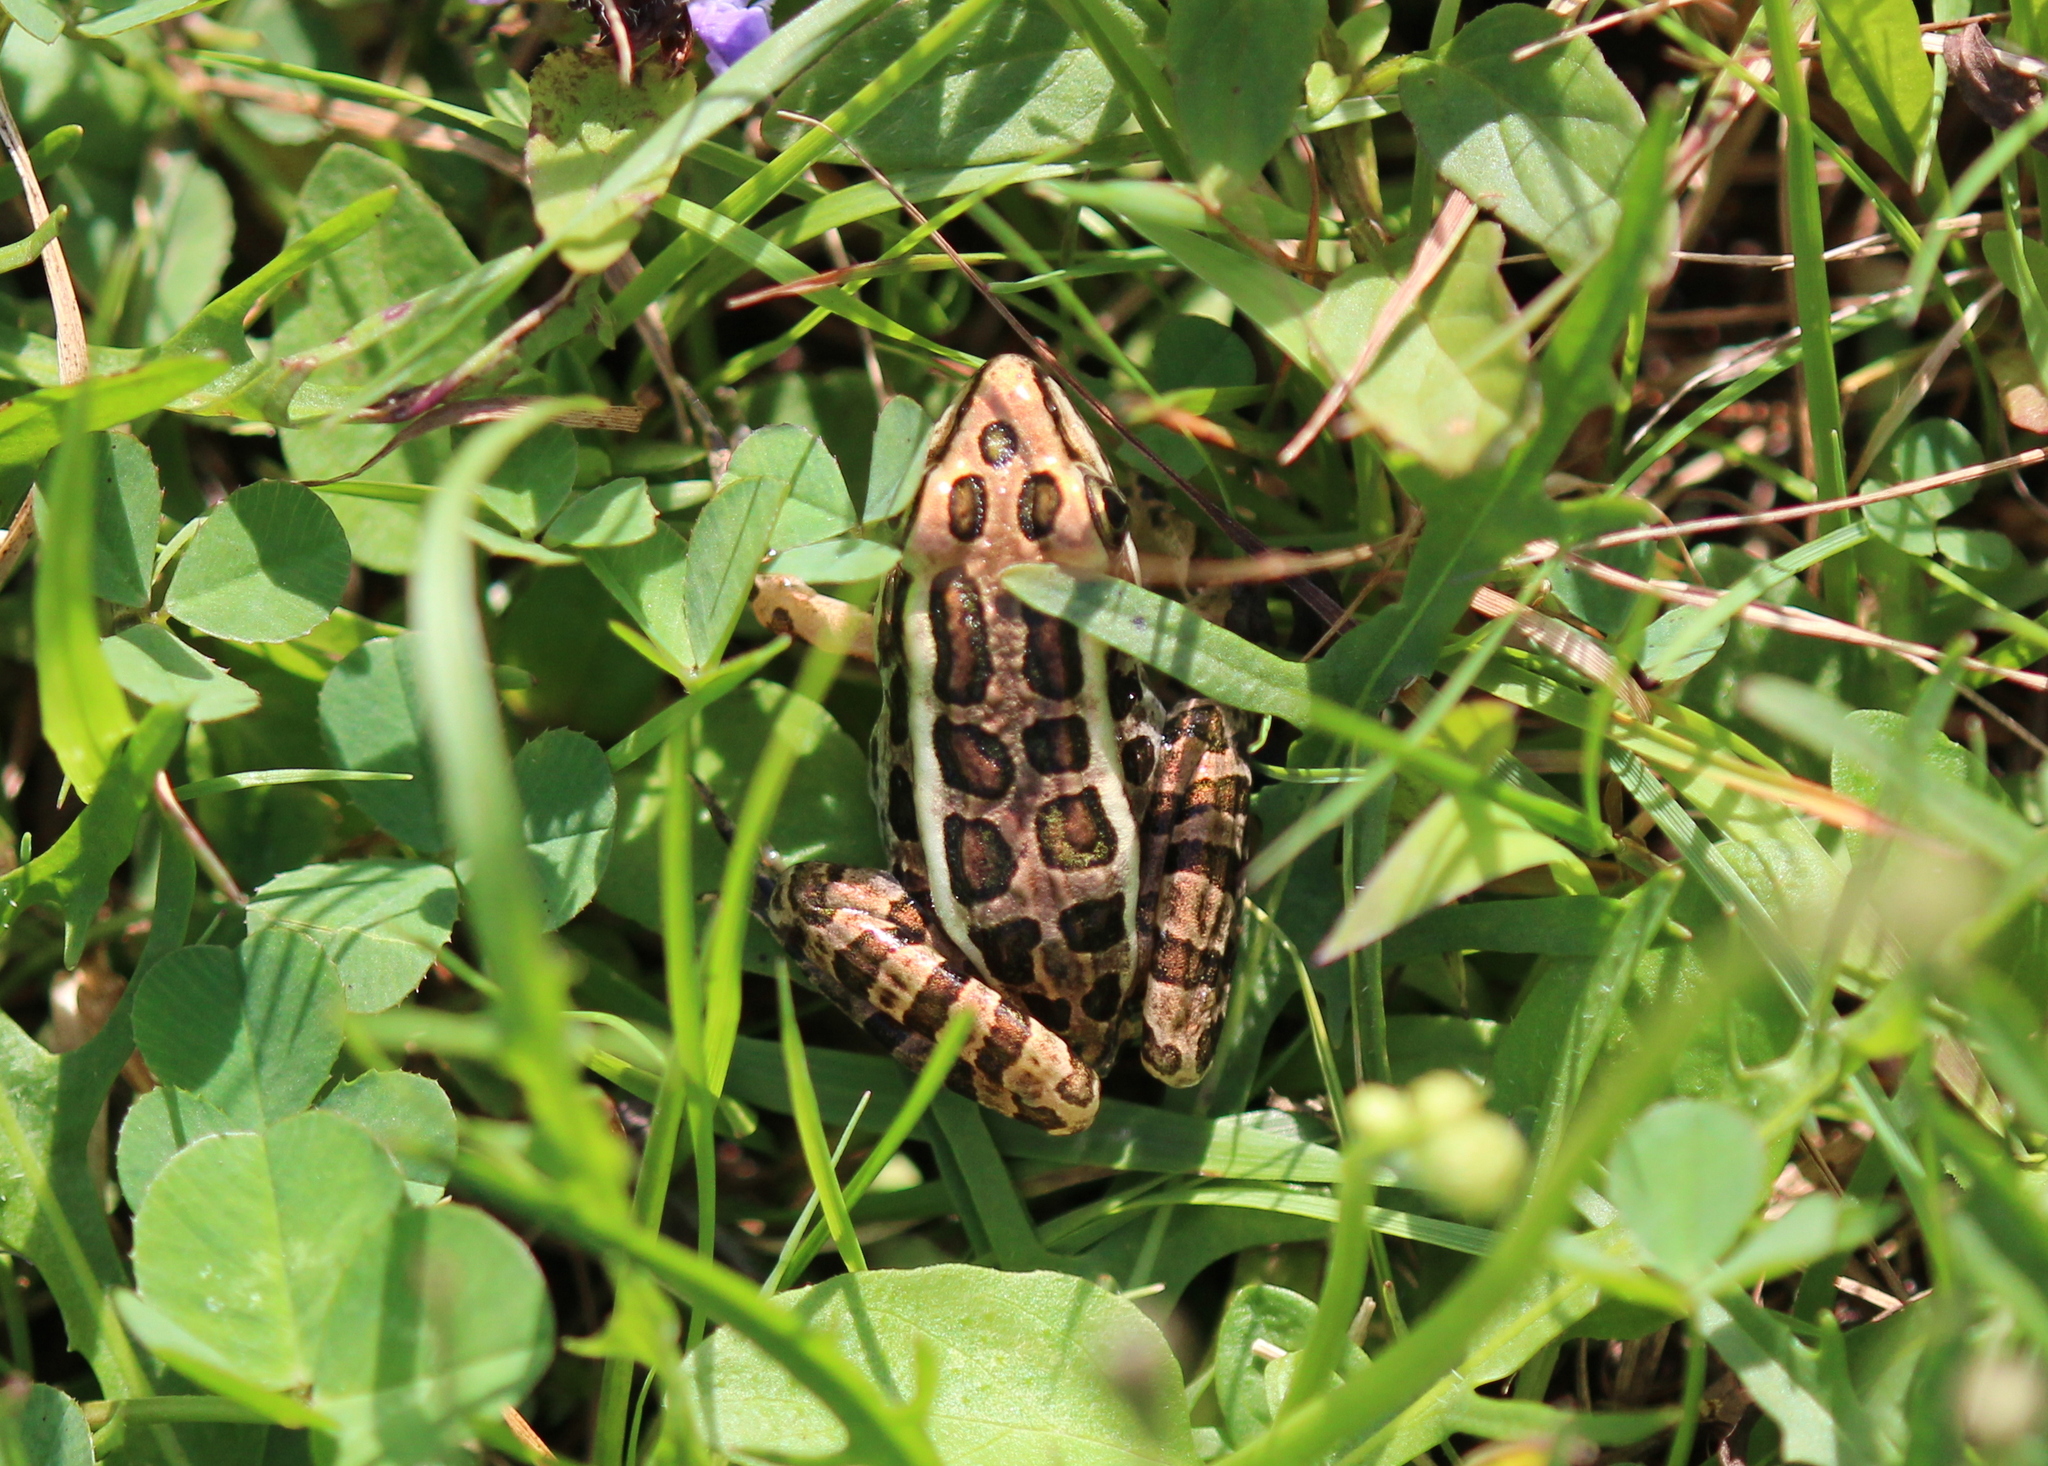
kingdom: Animalia
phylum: Chordata
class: Amphibia
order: Anura
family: Ranidae
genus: Lithobates
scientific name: Lithobates palustris
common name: Pickerel frog
